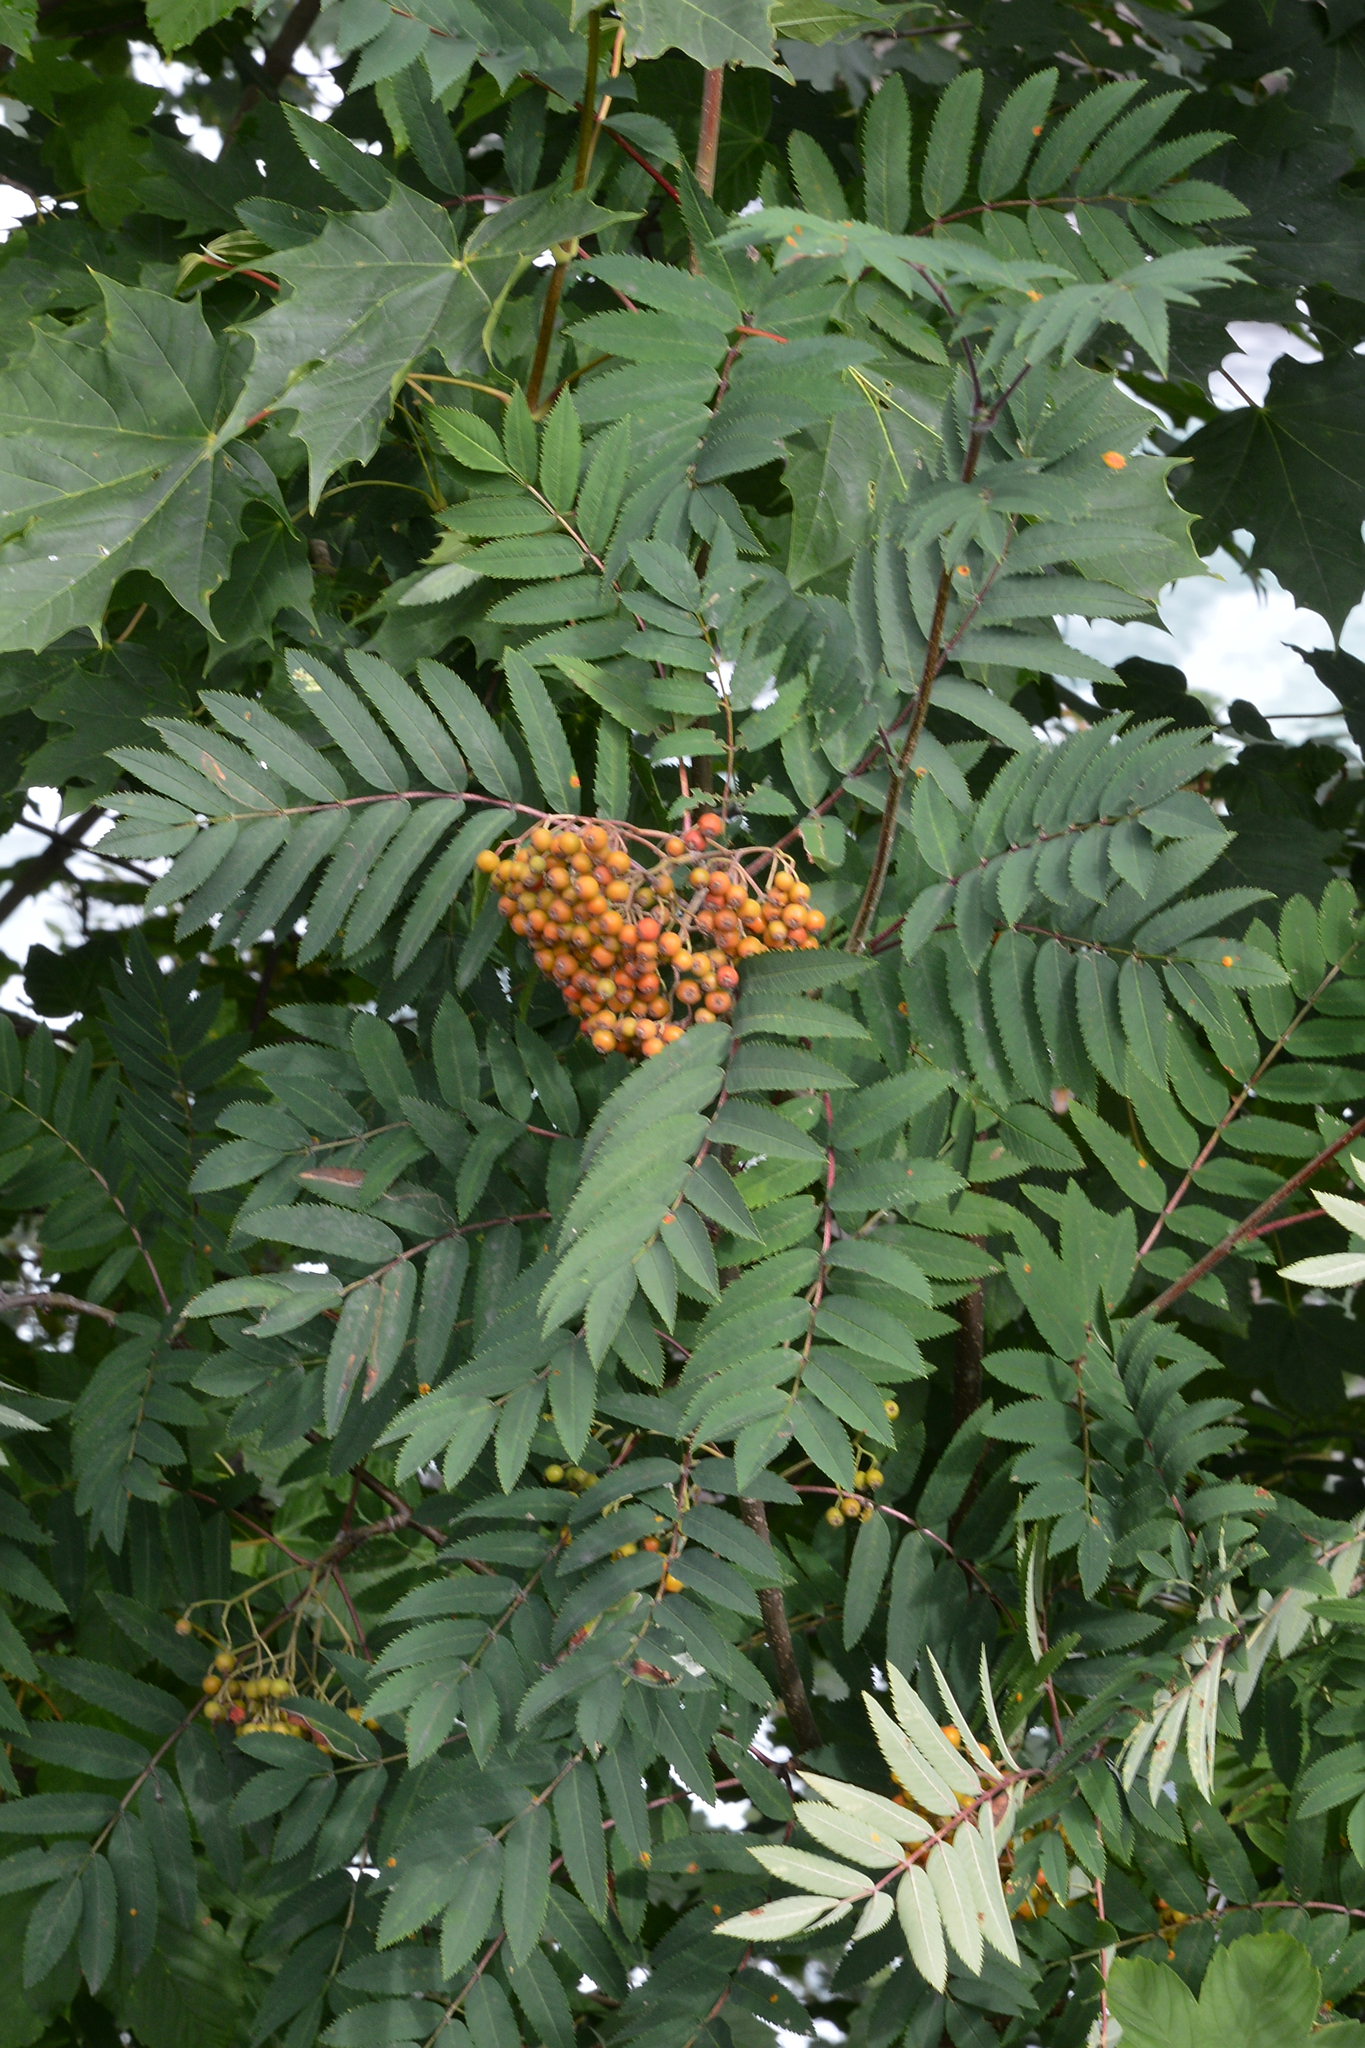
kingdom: Plantae
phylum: Tracheophyta
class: Magnoliopsida
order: Rosales
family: Rosaceae
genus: Sorbus
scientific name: Sorbus aucuparia
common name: Rowan
